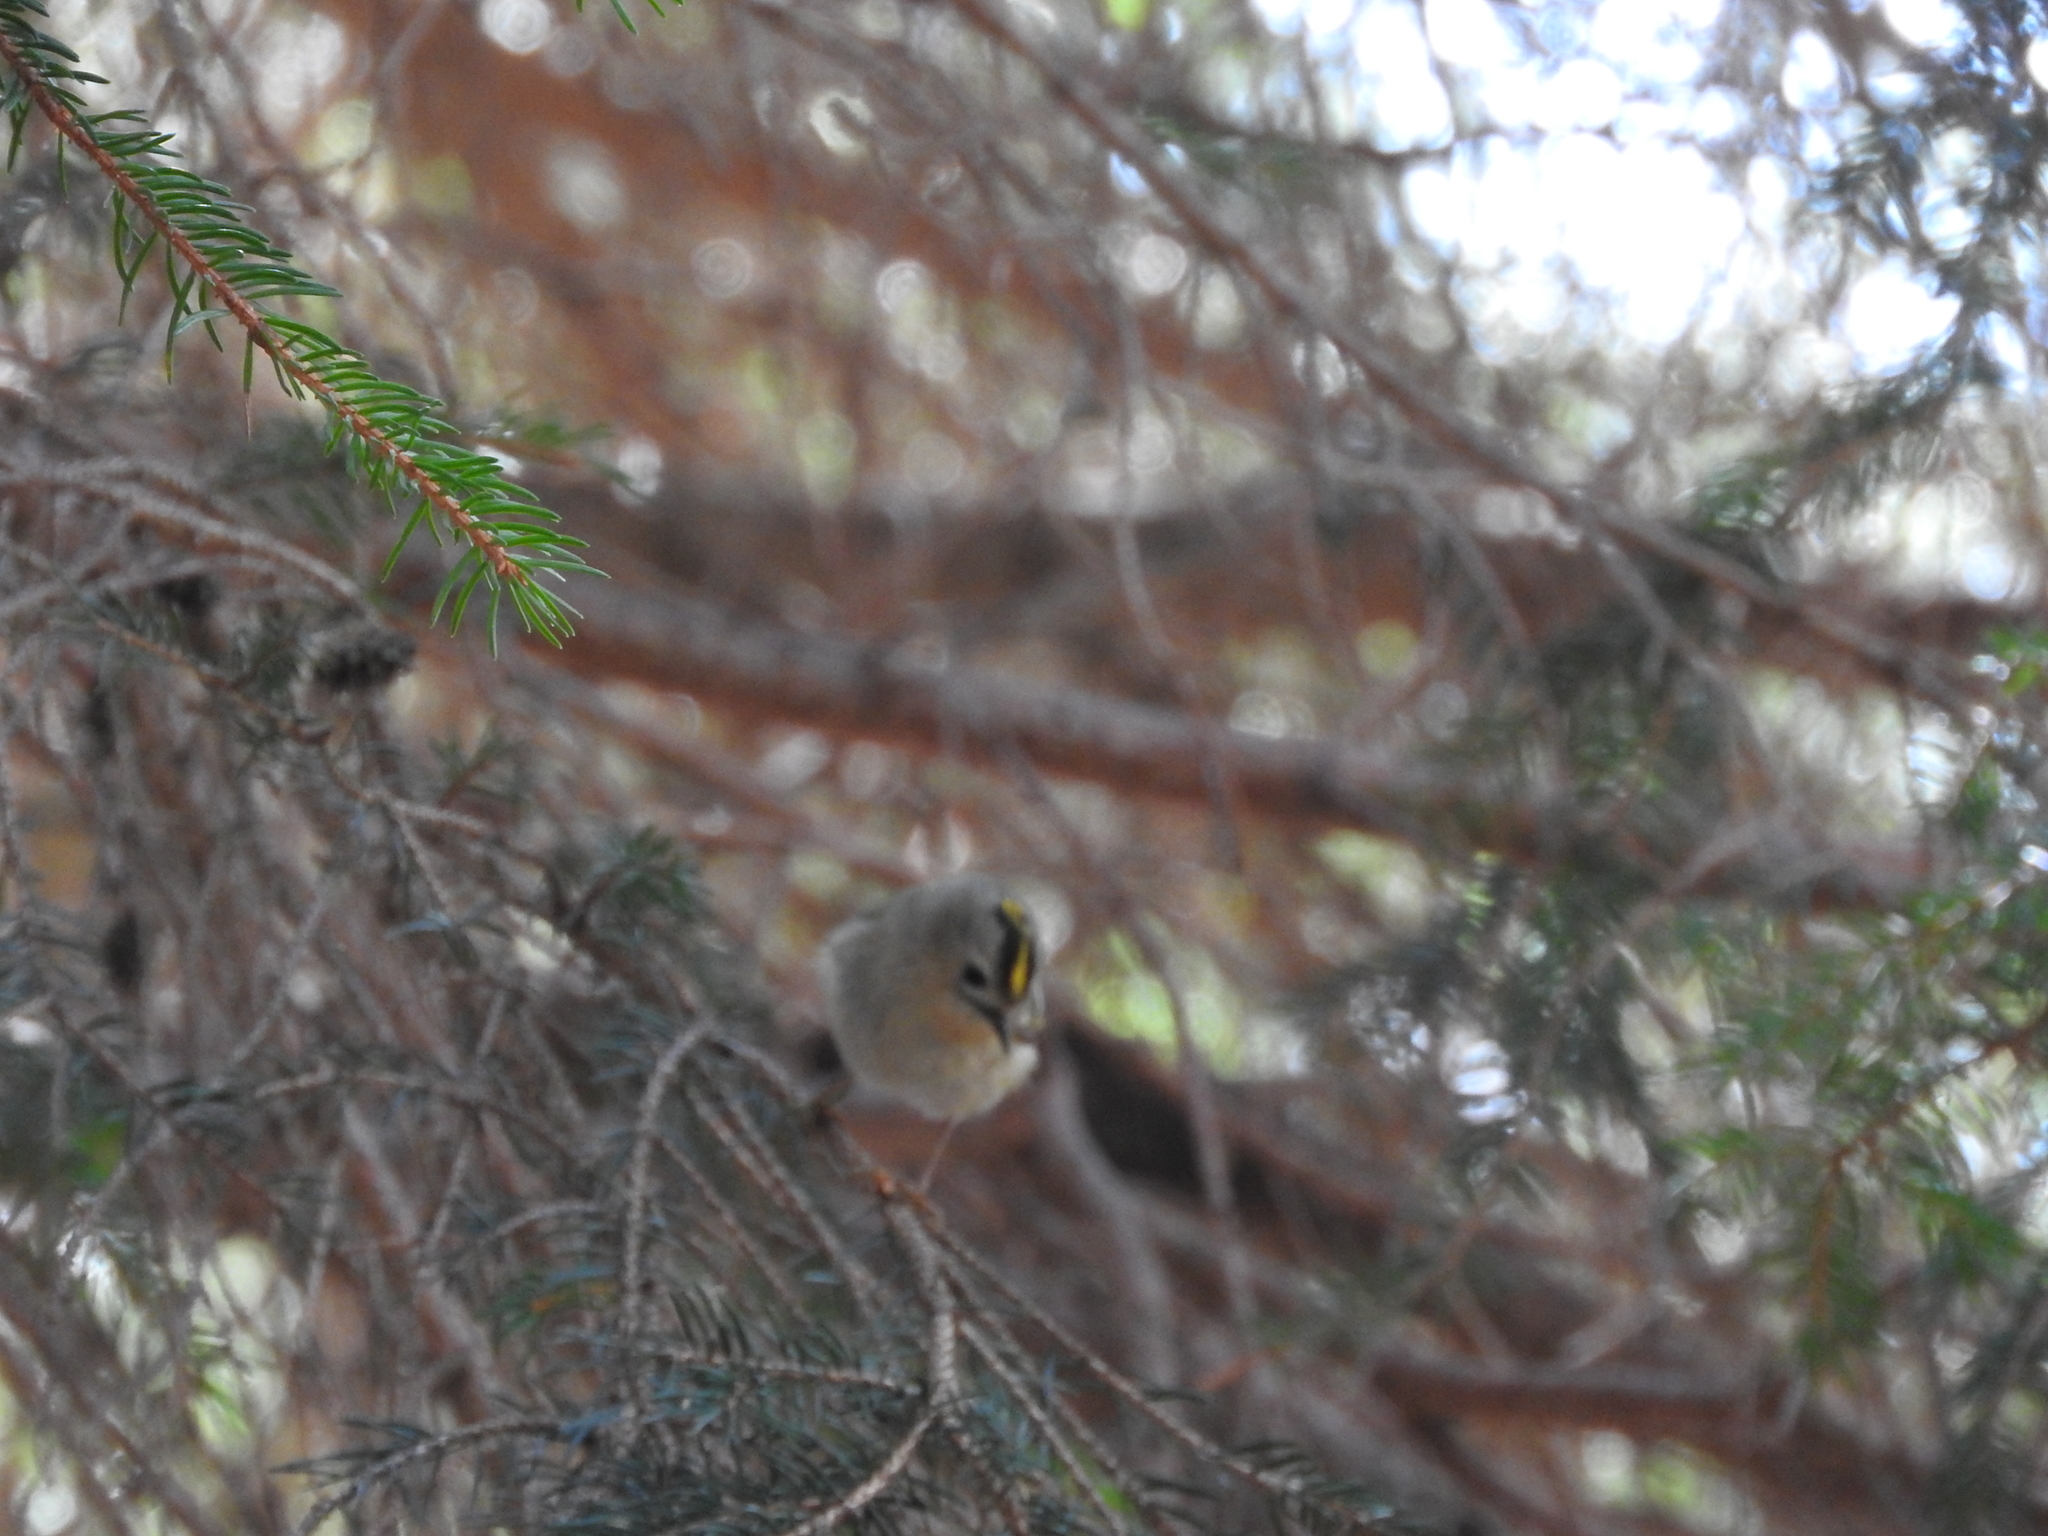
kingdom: Animalia
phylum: Chordata
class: Aves
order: Passeriformes
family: Regulidae
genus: Regulus
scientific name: Regulus regulus
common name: Goldcrest
